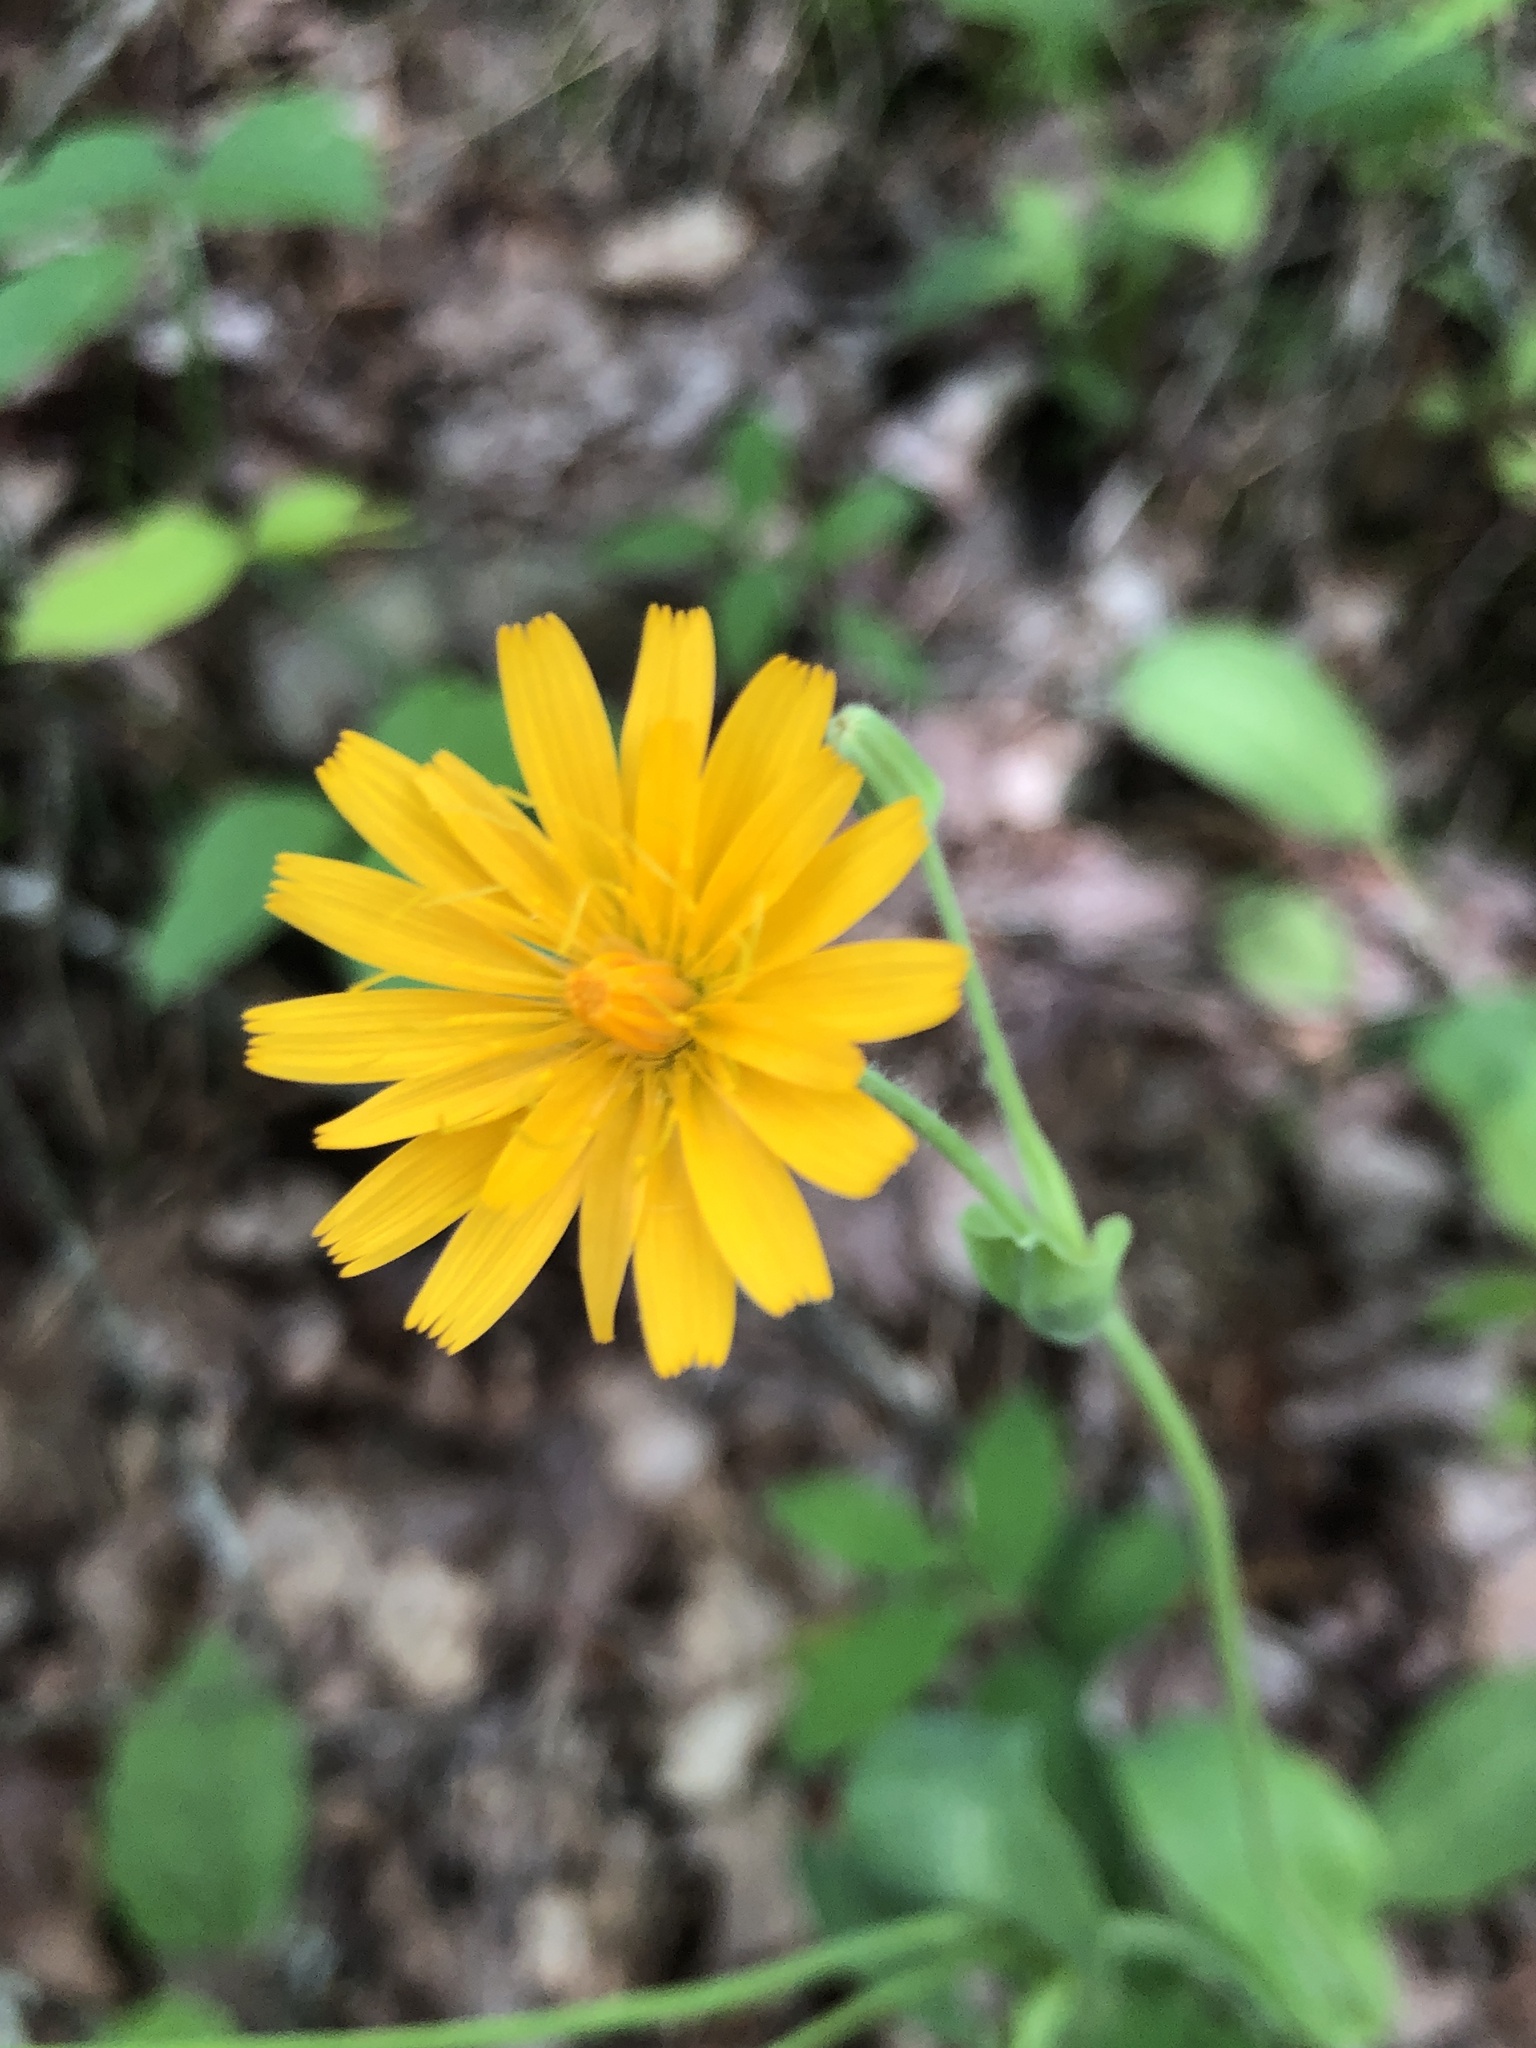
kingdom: Plantae
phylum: Tracheophyta
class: Magnoliopsida
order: Asterales
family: Asteraceae
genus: Krigia
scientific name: Krigia biflora
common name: Orange dwarf-dandelion
